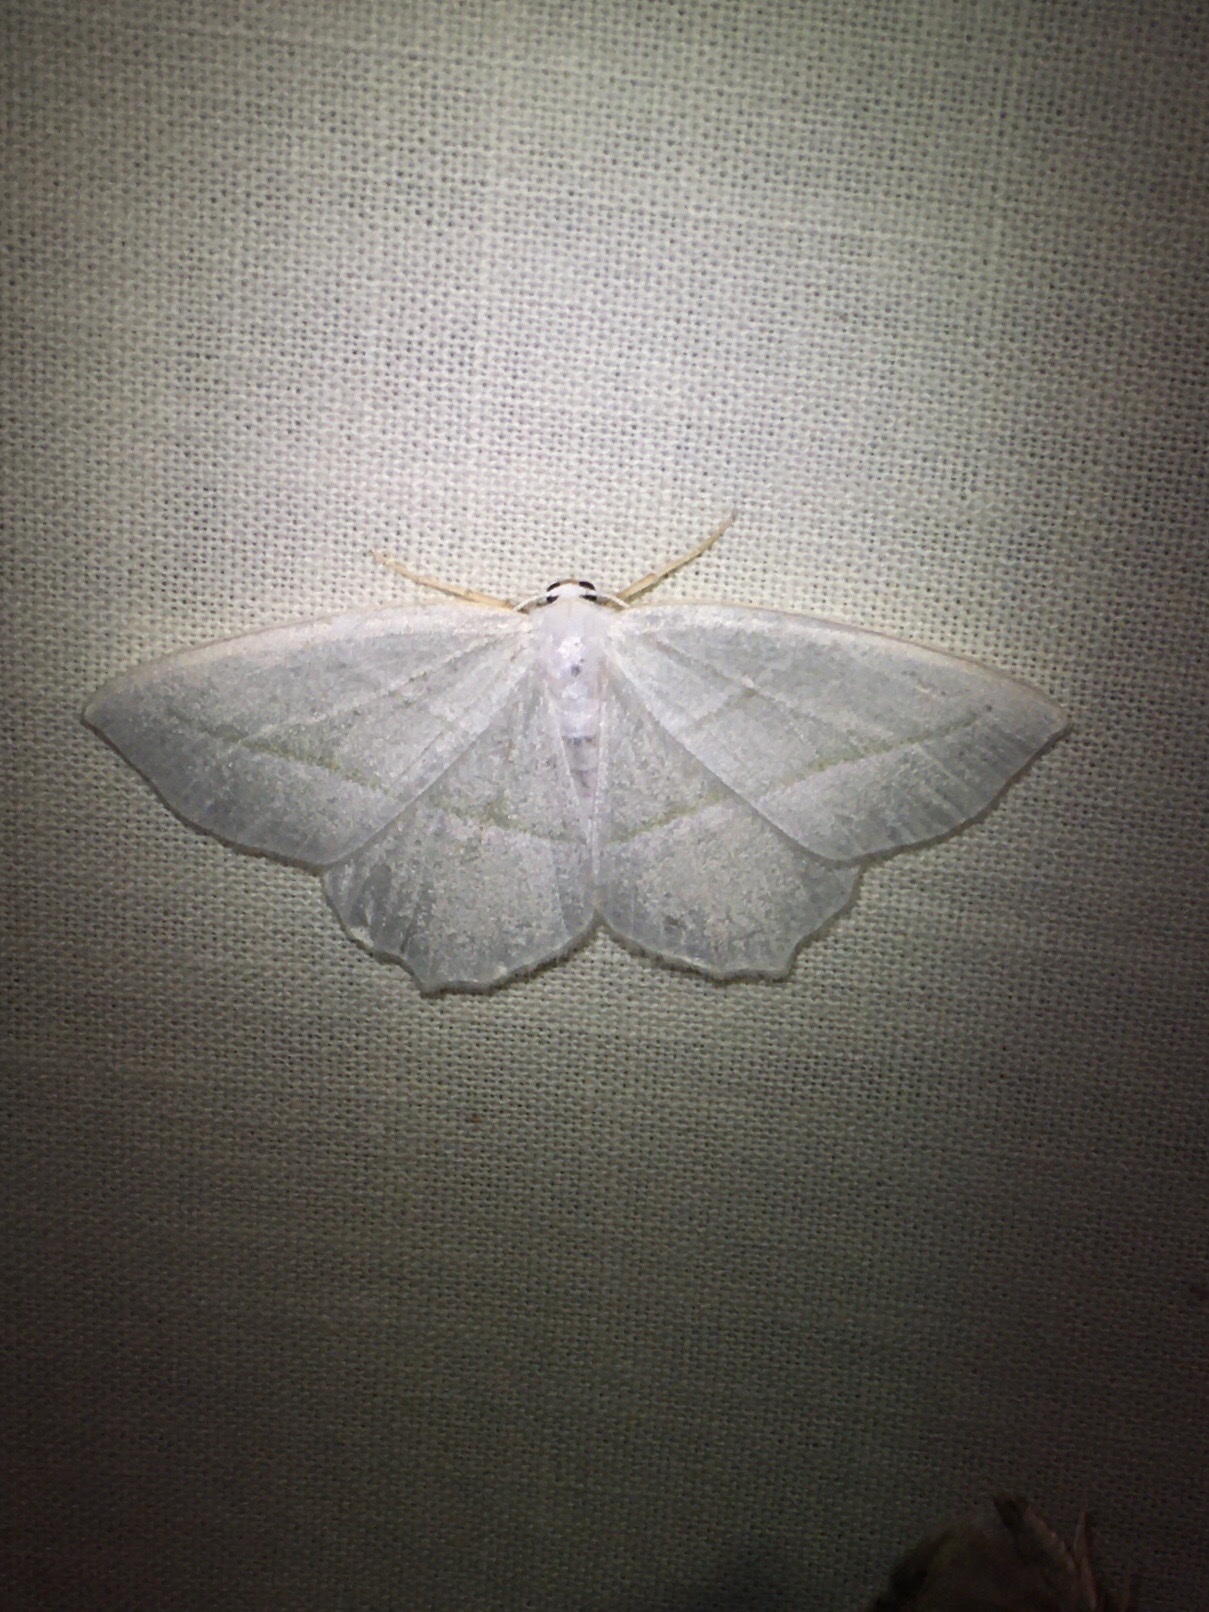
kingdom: Animalia
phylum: Arthropoda
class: Insecta
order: Lepidoptera
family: Geometridae
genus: Campaea
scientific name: Campaea perlata
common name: Fringed looper
